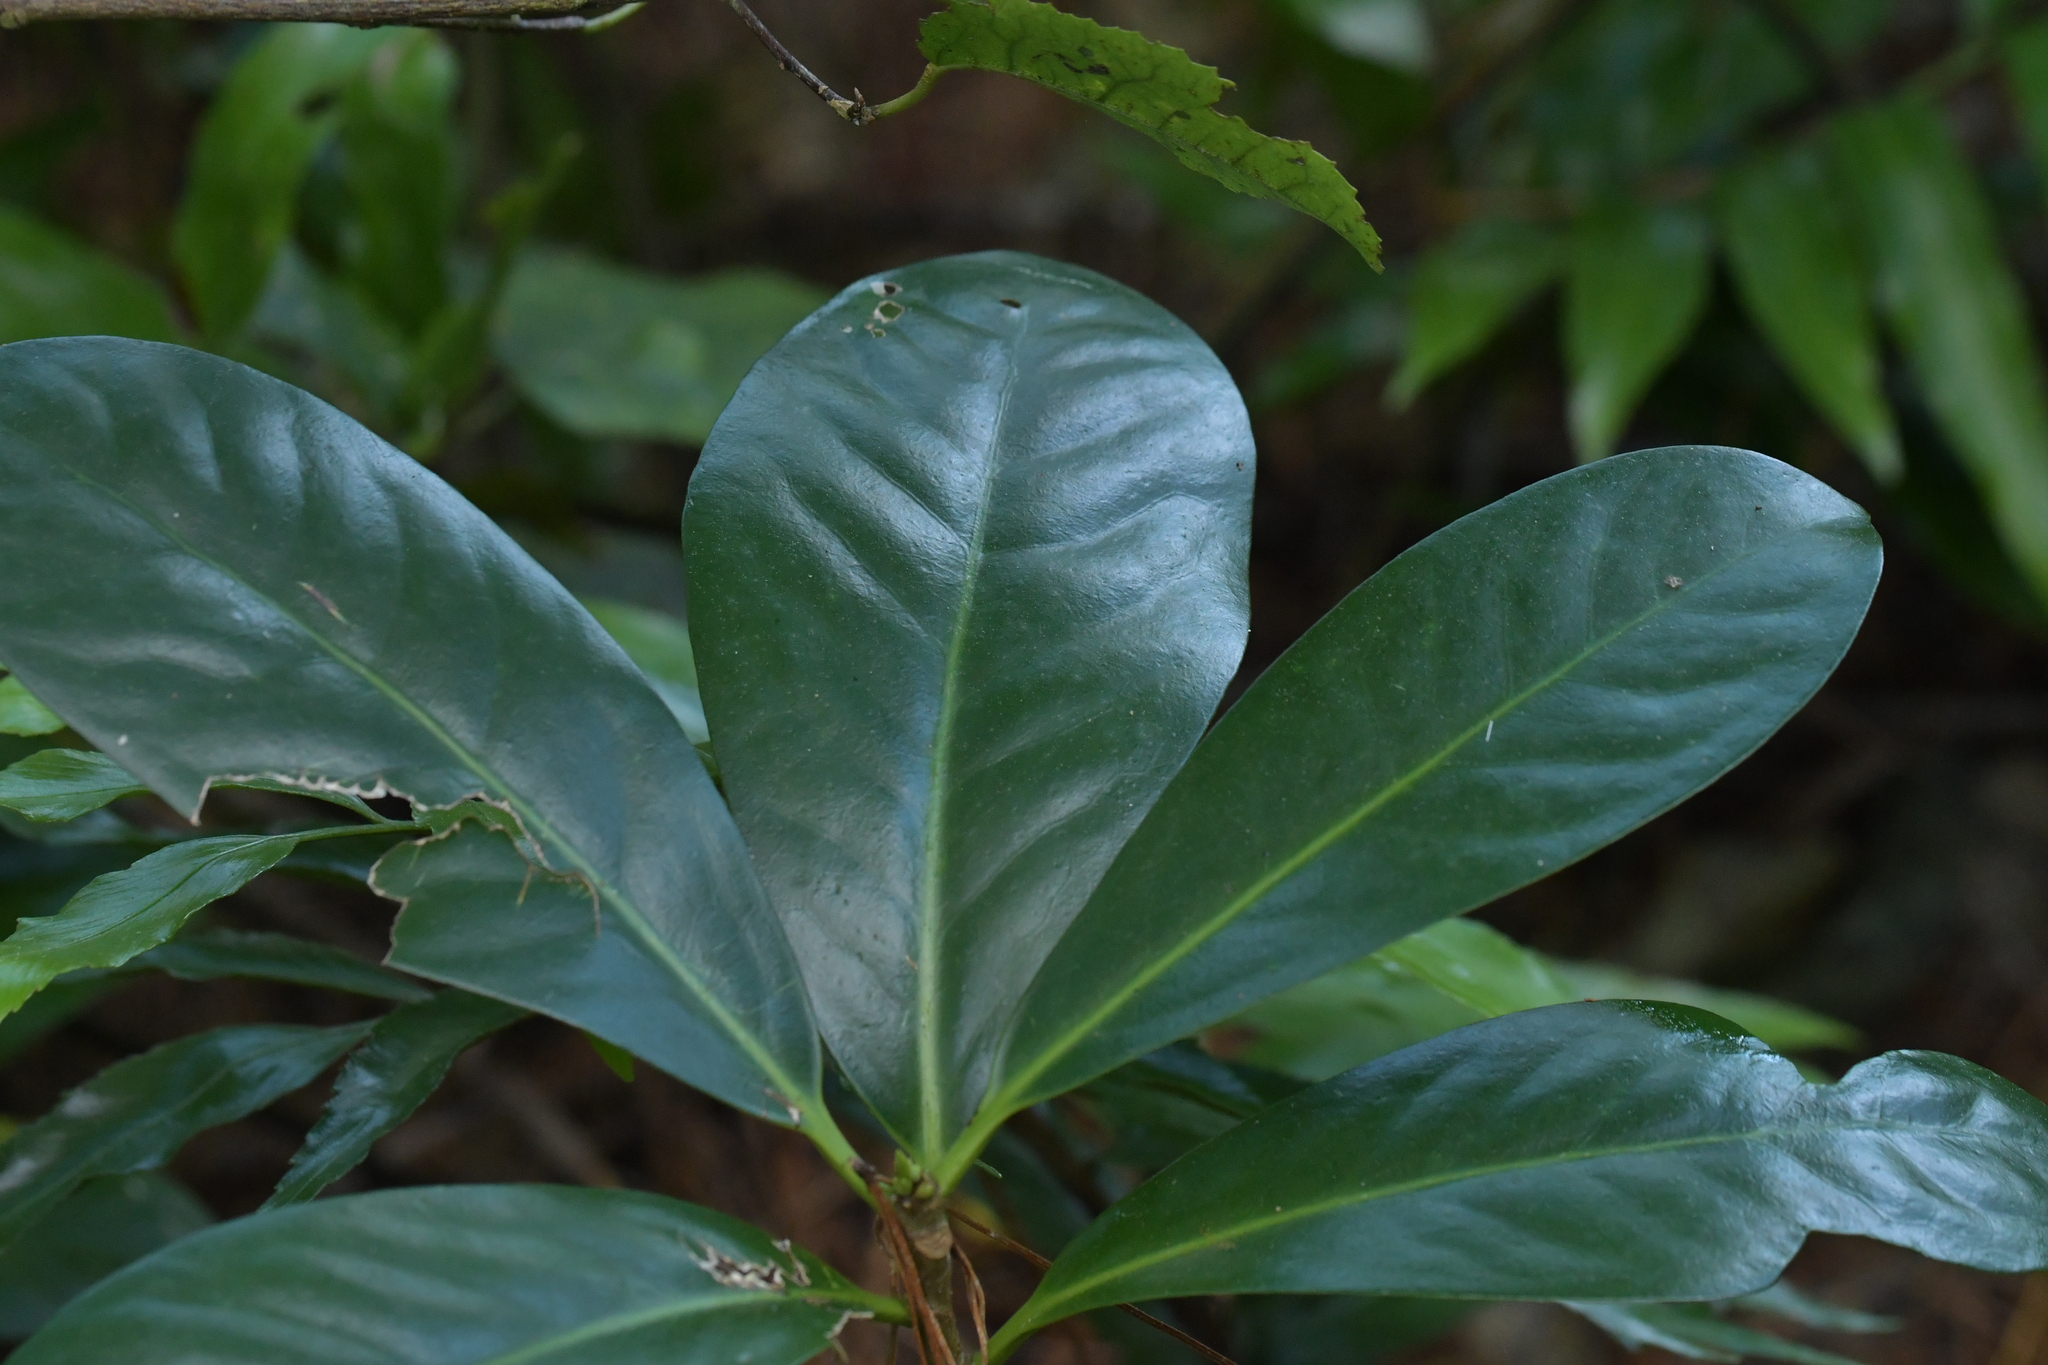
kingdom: Plantae
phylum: Tracheophyta
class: Magnoliopsida
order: Cucurbitales
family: Corynocarpaceae
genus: Corynocarpus
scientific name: Corynocarpus laevigatus
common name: New zealand laurel
